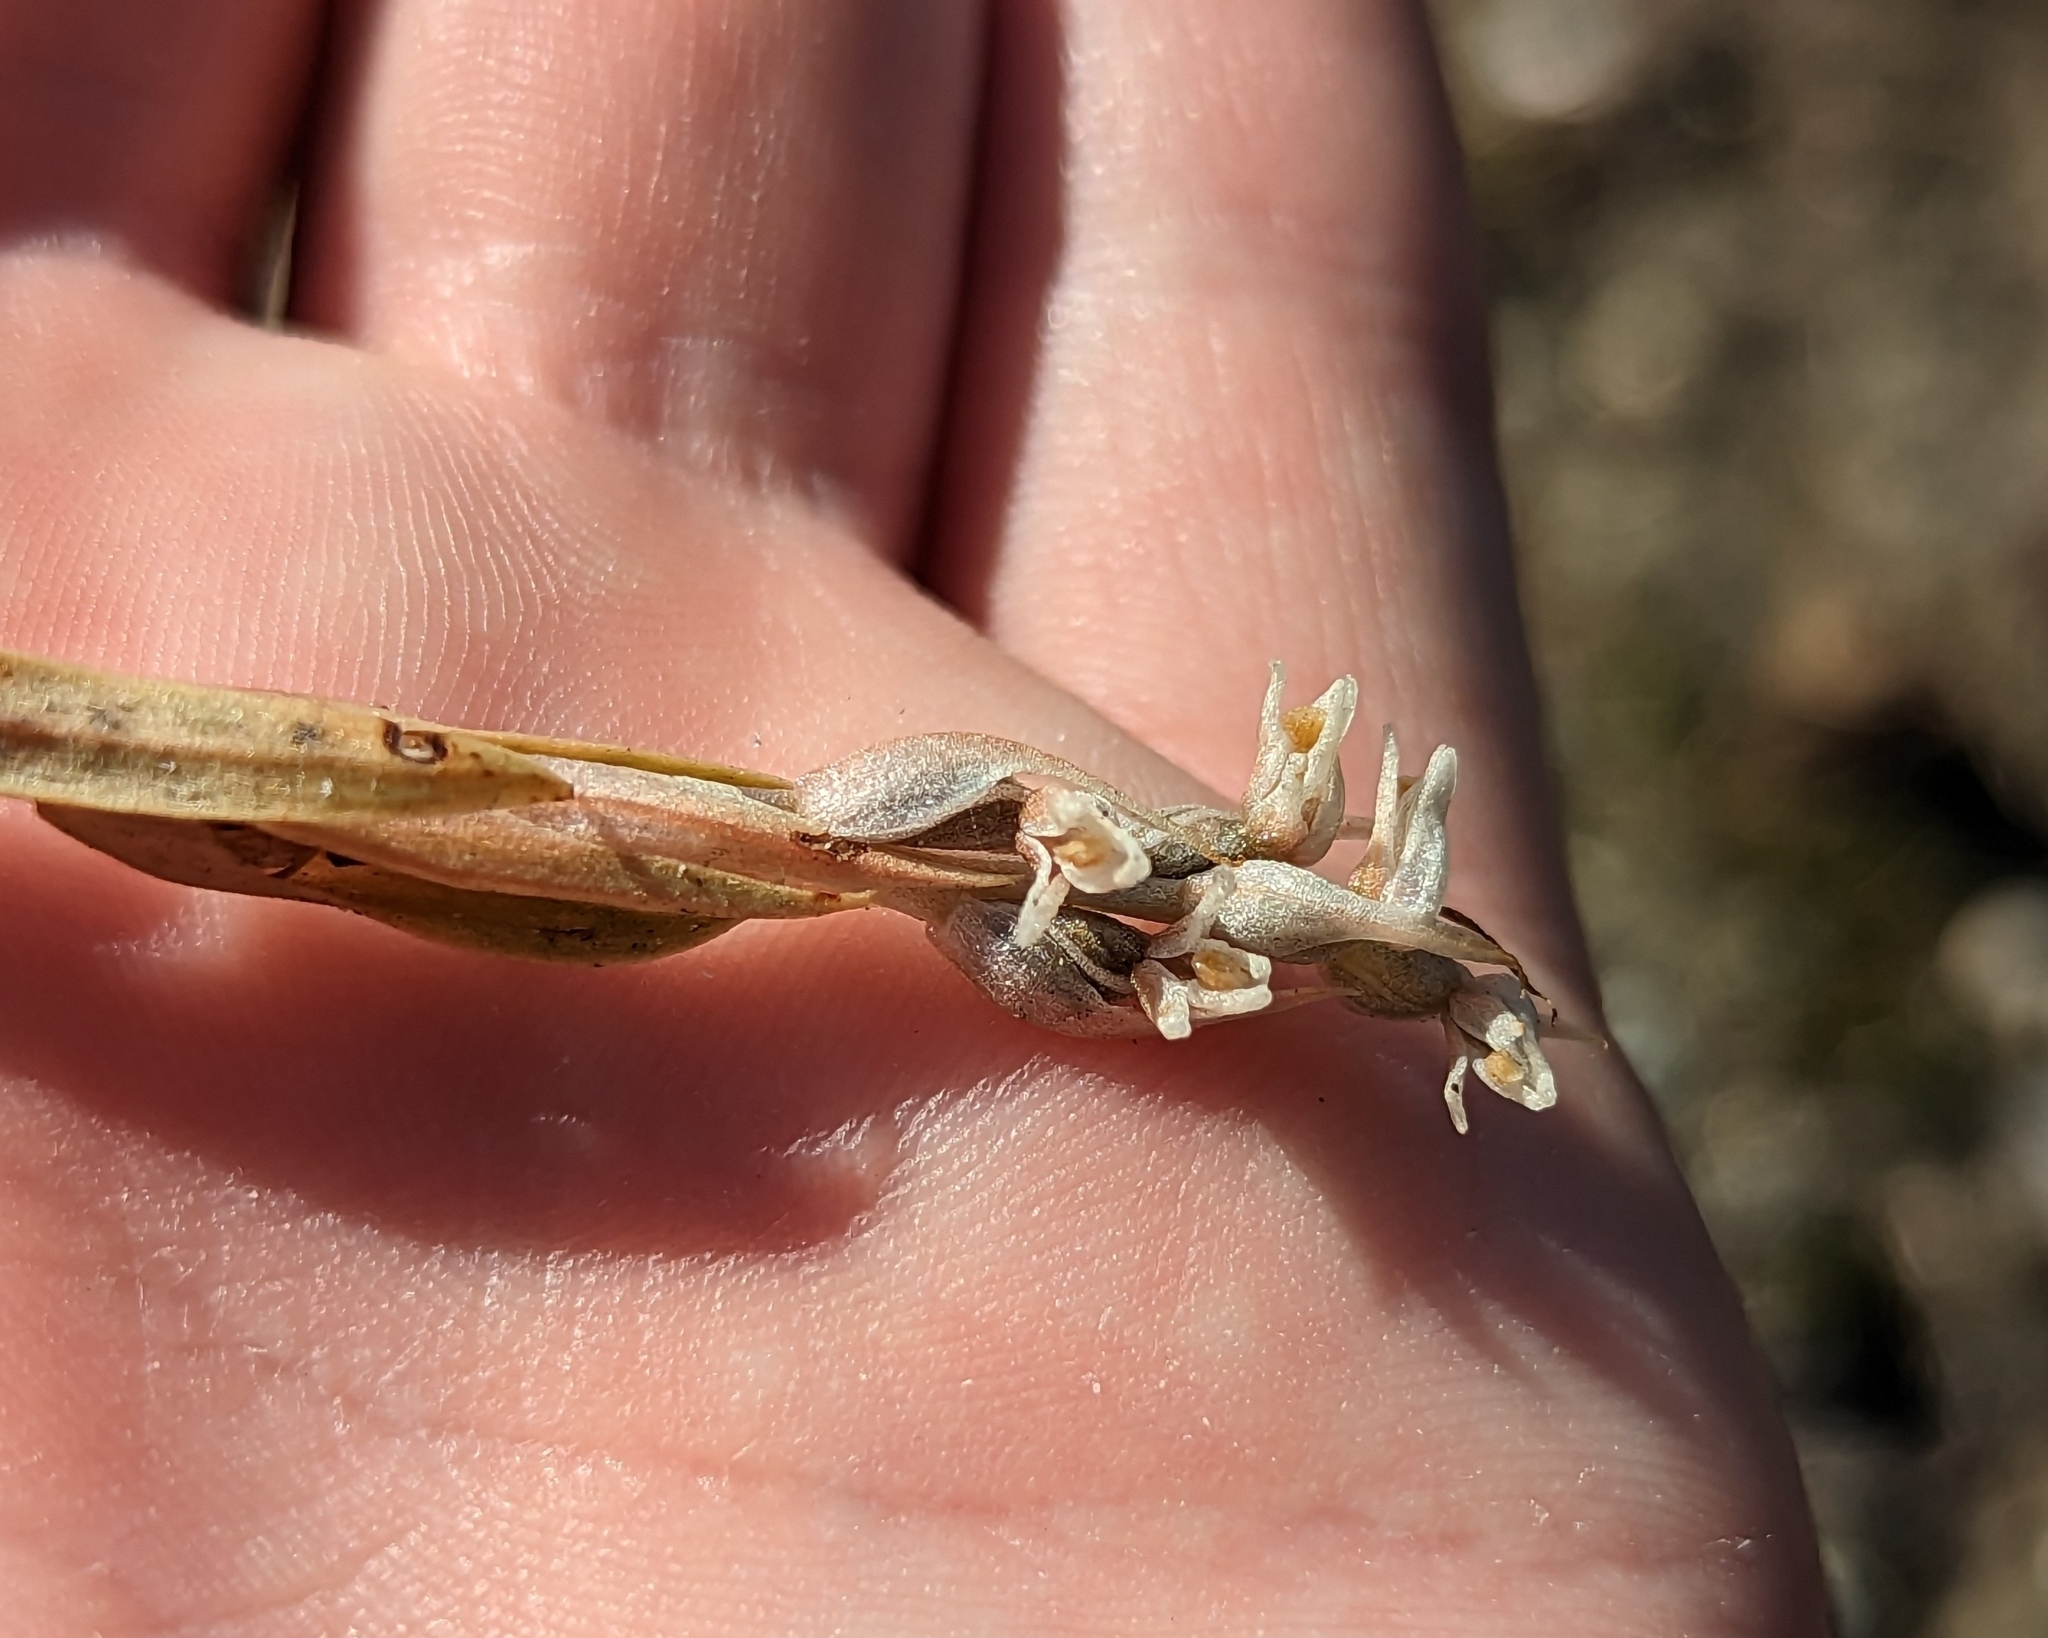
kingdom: Plantae
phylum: Tracheophyta
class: Liliopsida
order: Asparagales
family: Orchidaceae
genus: Zeuxine
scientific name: Zeuxine strateumatica
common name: Soldier's orchid
